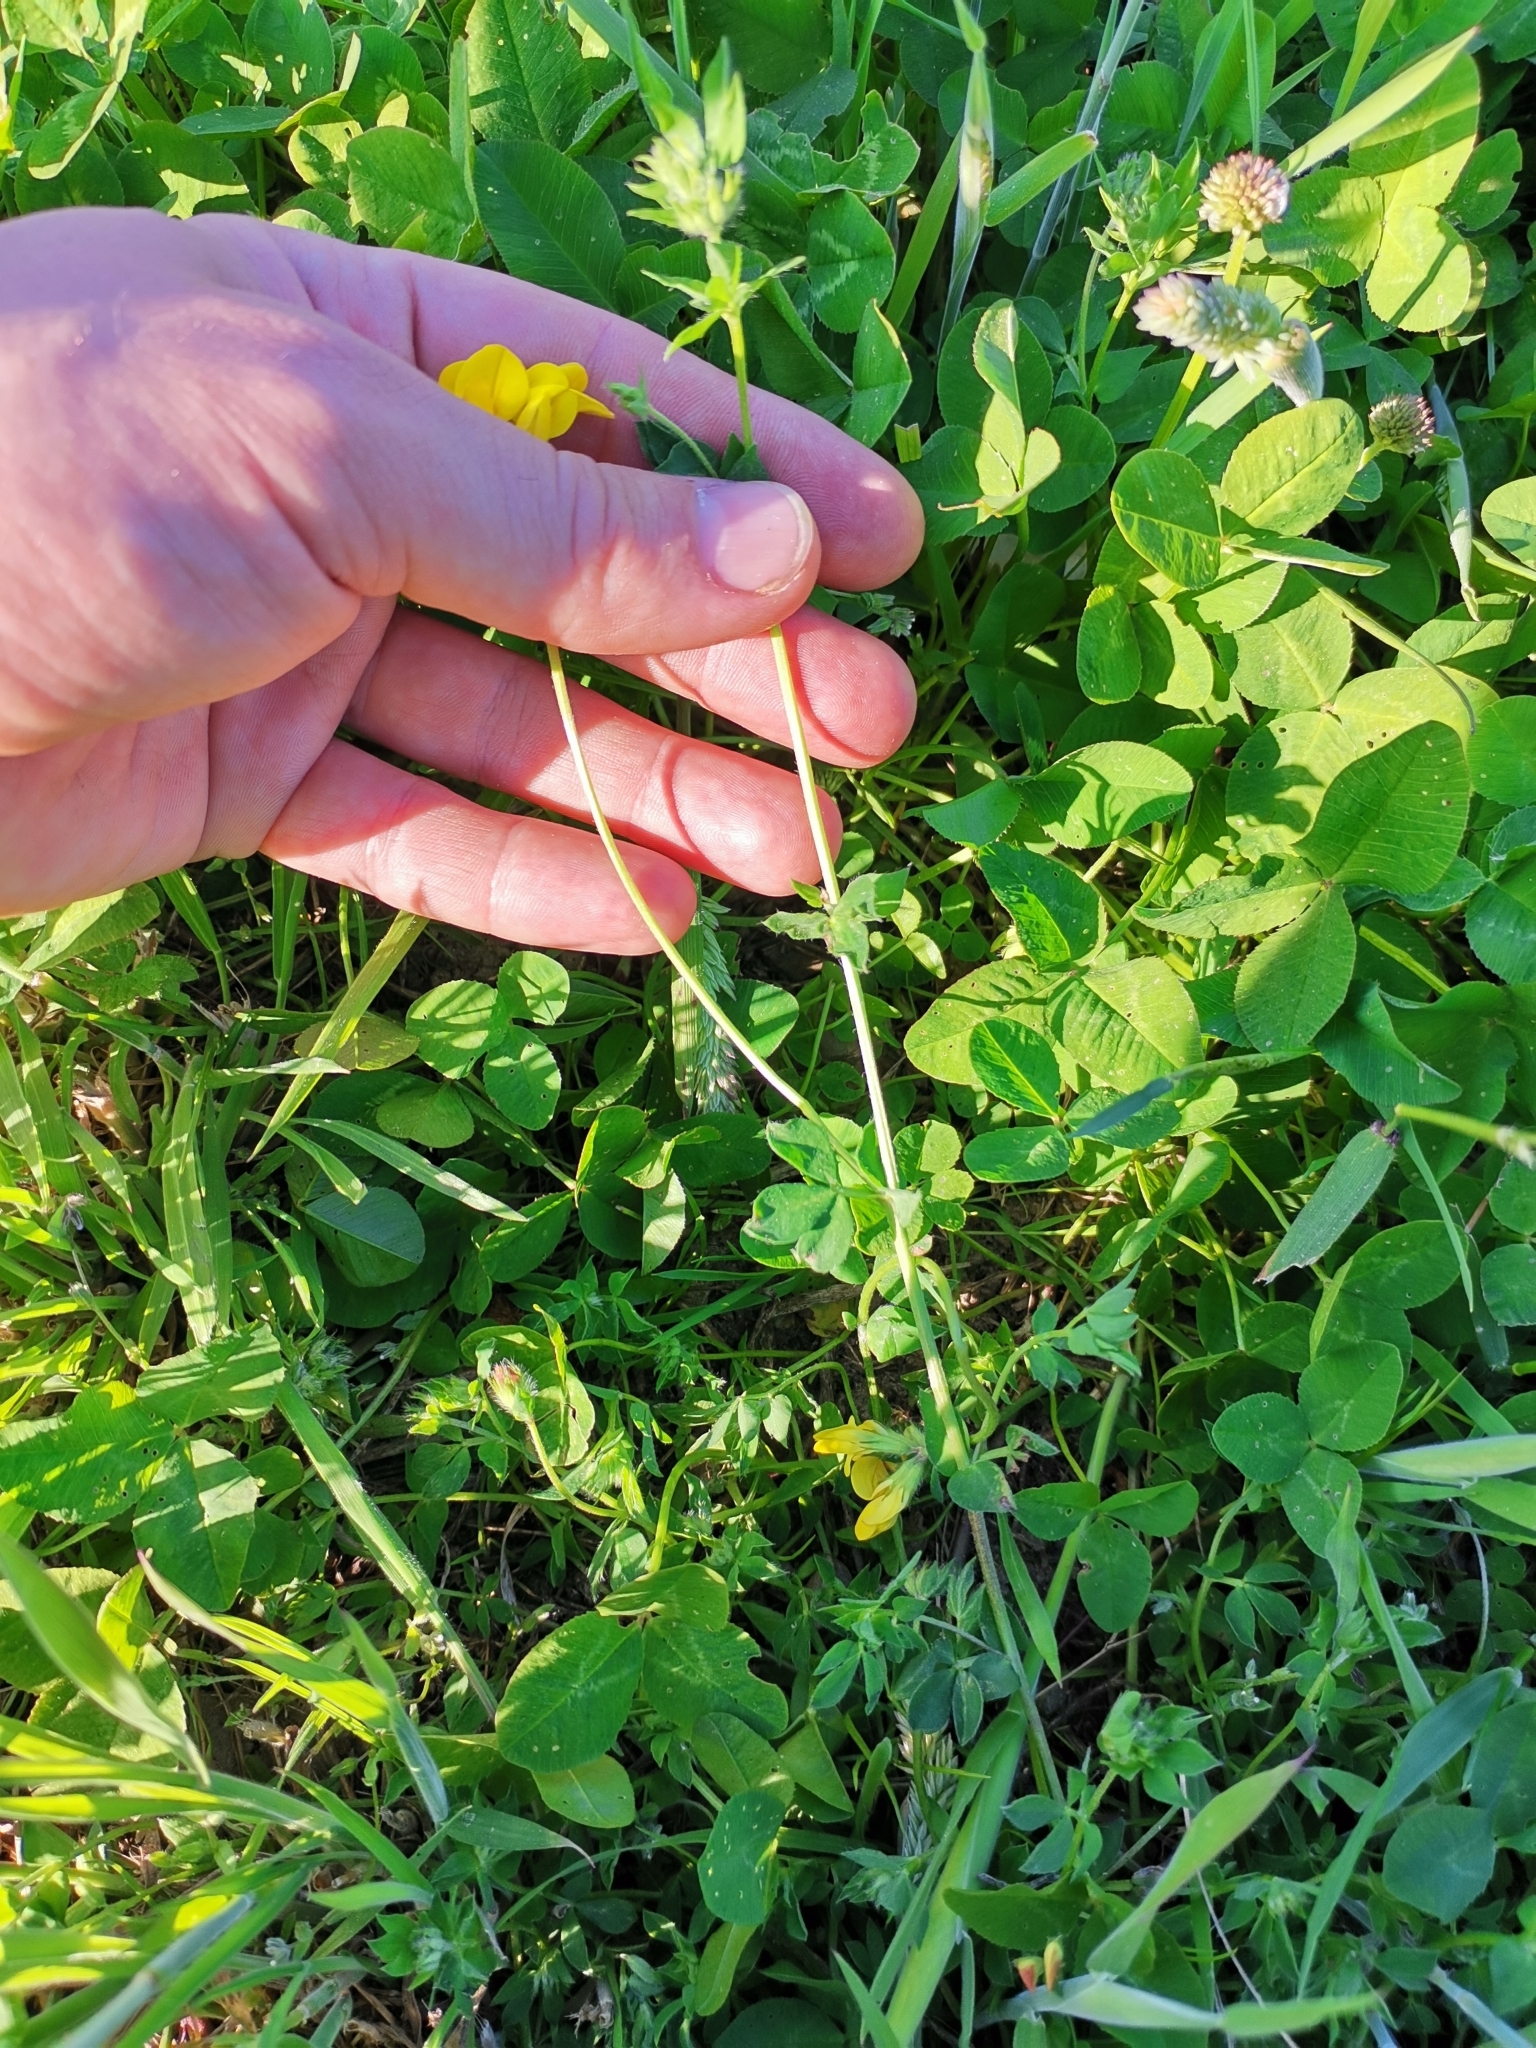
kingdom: Plantae
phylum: Tracheophyta
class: Magnoliopsida
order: Fabales
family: Fabaceae
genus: Lotus
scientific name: Lotus corniculatus
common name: Common bird's-foot-trefoil
